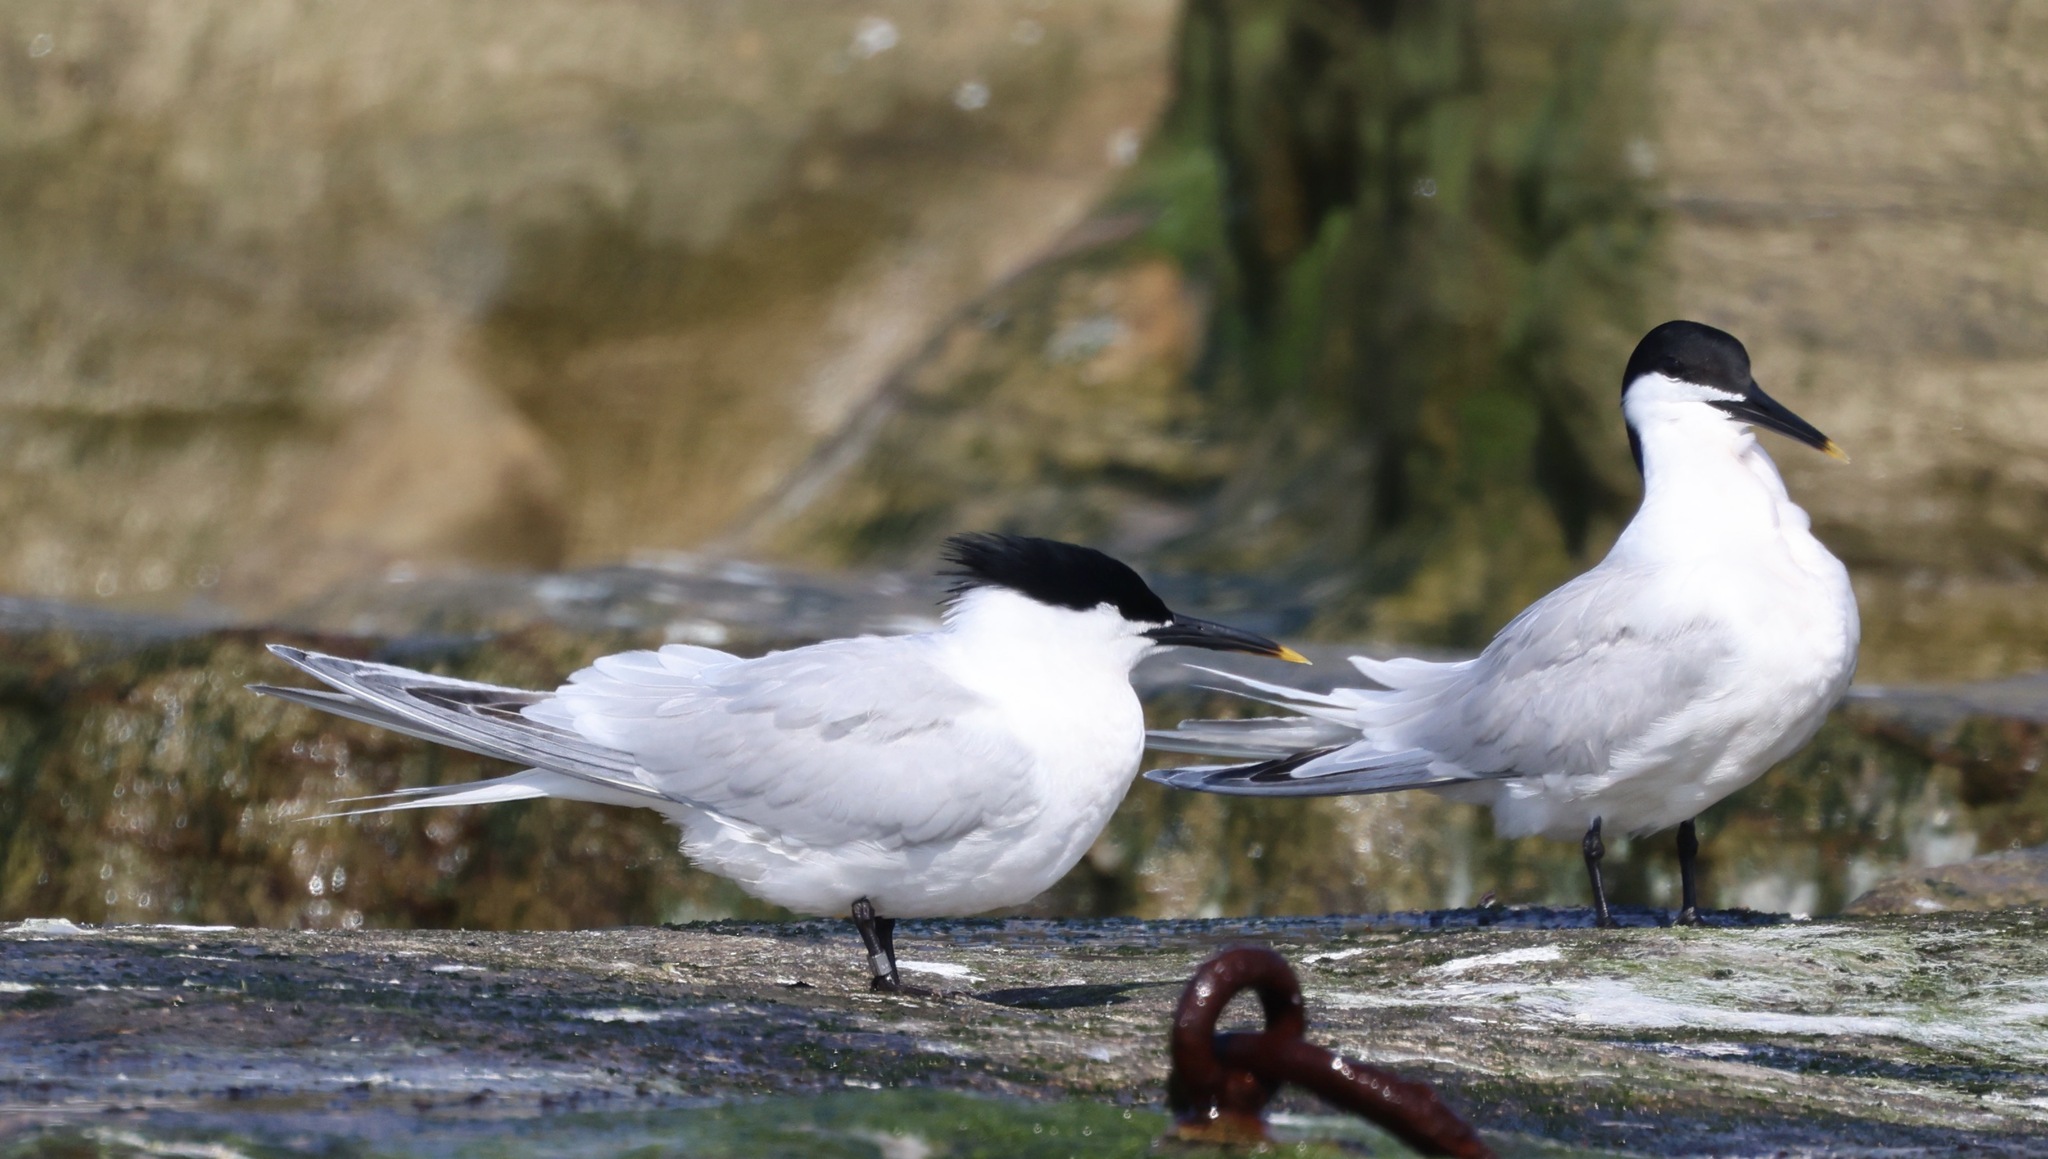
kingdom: Animalia
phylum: Chordata
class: Aves
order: Charadriiformes
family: Laridae
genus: Thalasseus
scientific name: Thalasseus sandvicensis
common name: Sandwich tern
